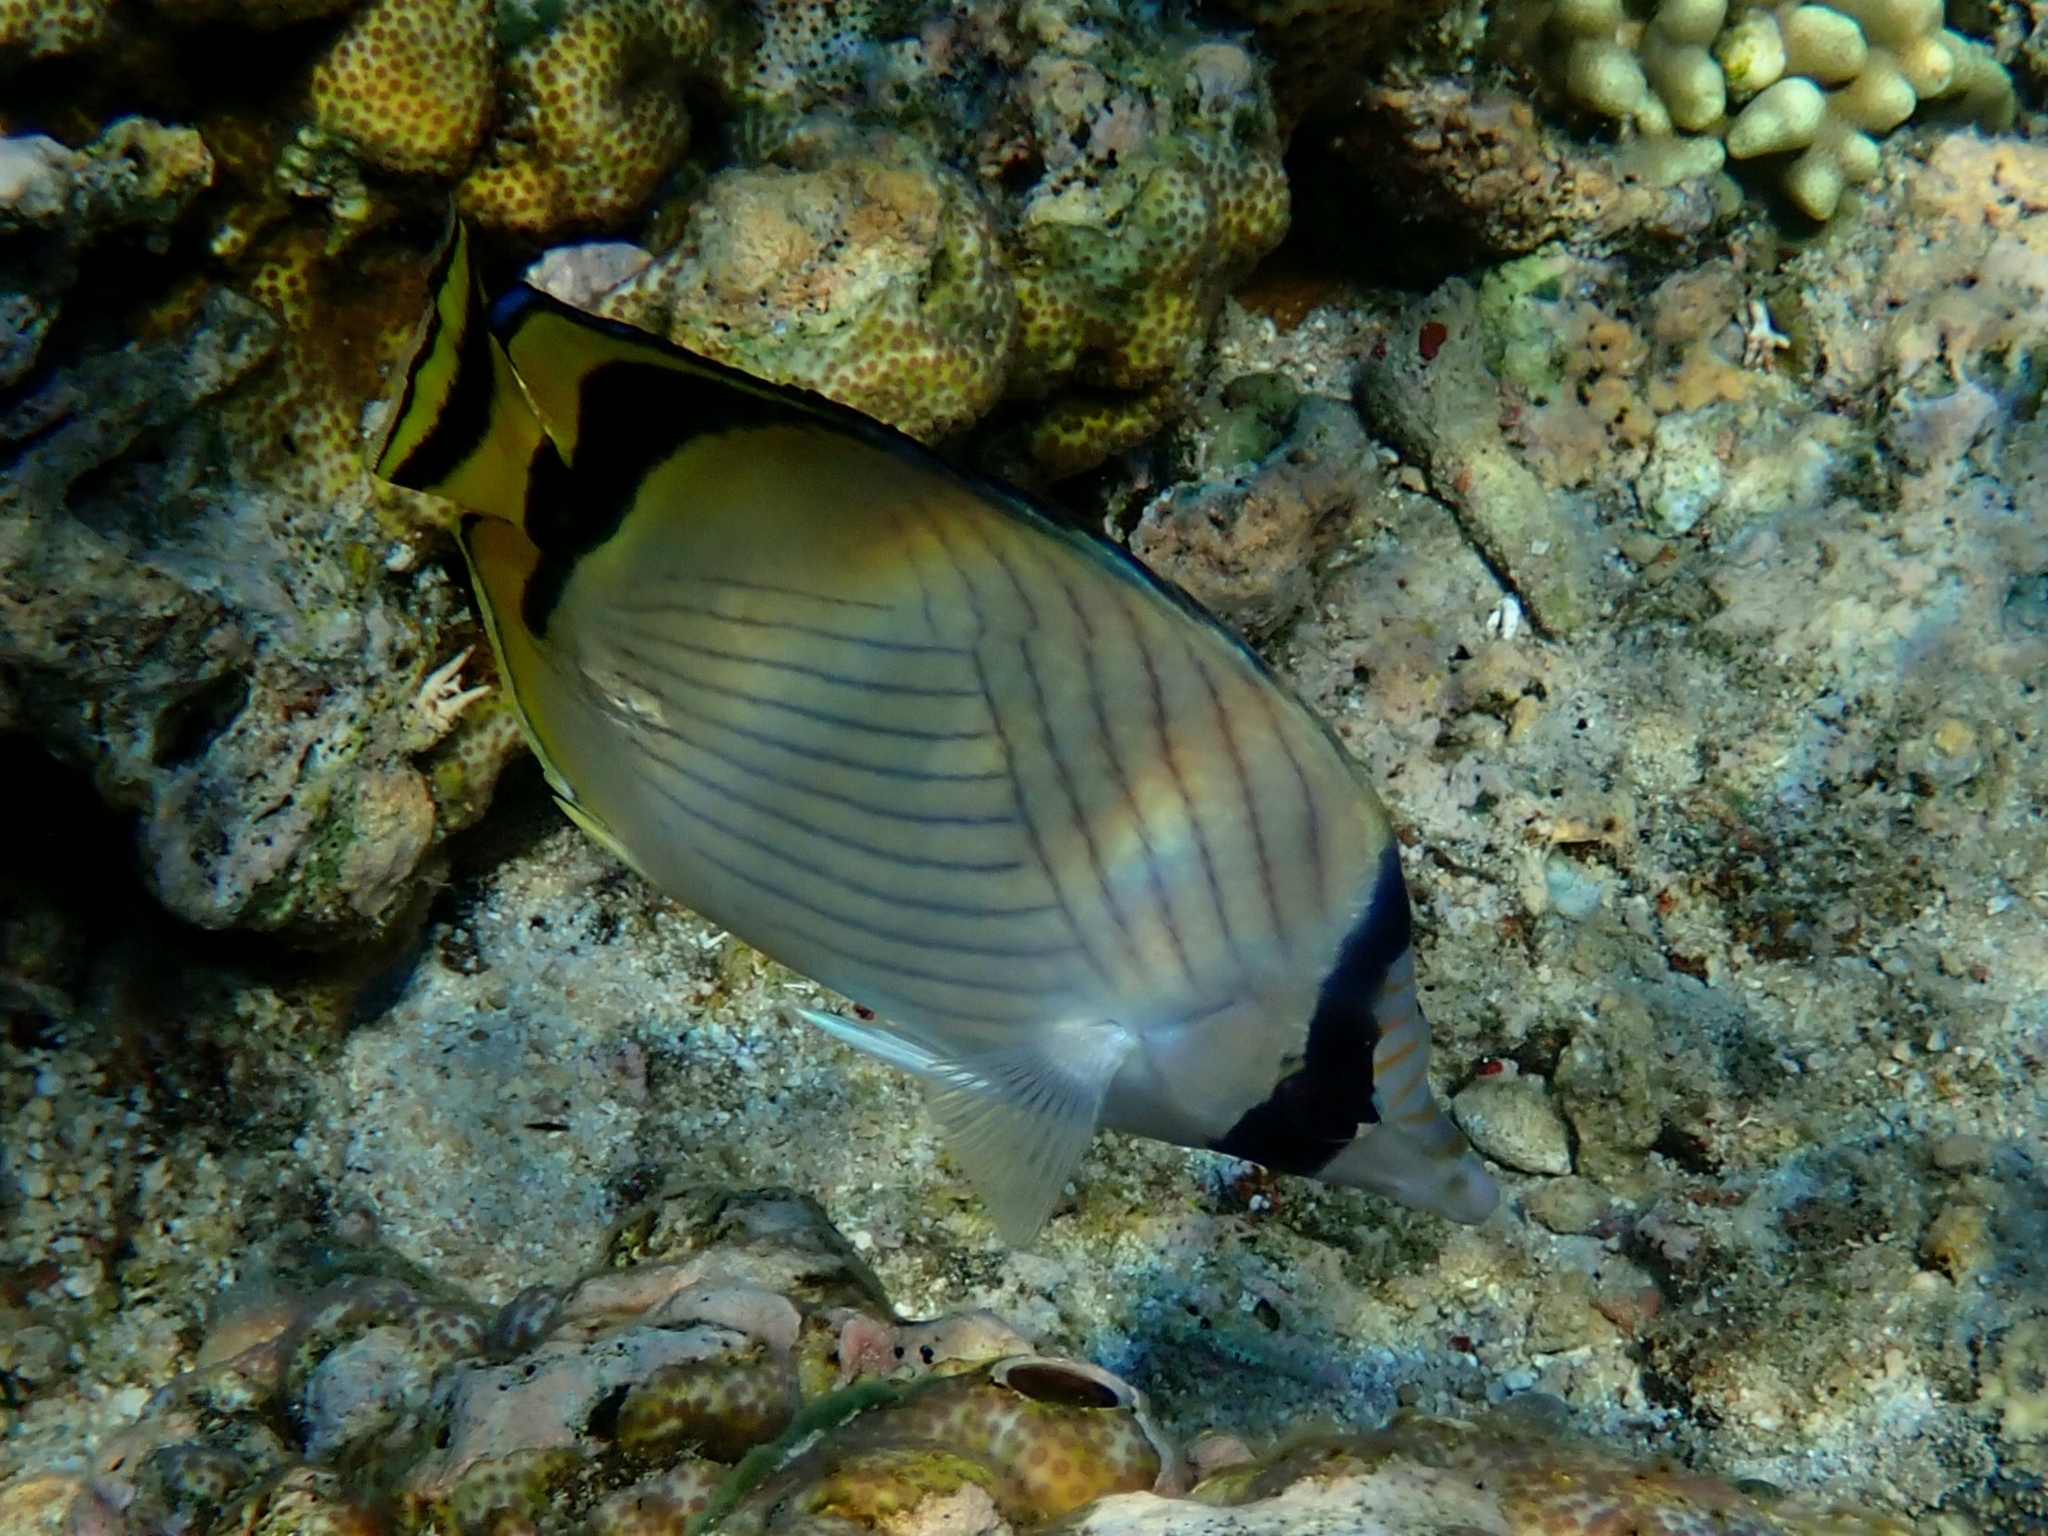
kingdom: Animalia
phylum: Chordata
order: Perciformes
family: Chaetodontidae
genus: Chaetodon
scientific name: Chaetodon vagabundus
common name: Vagabond butterflyfish
